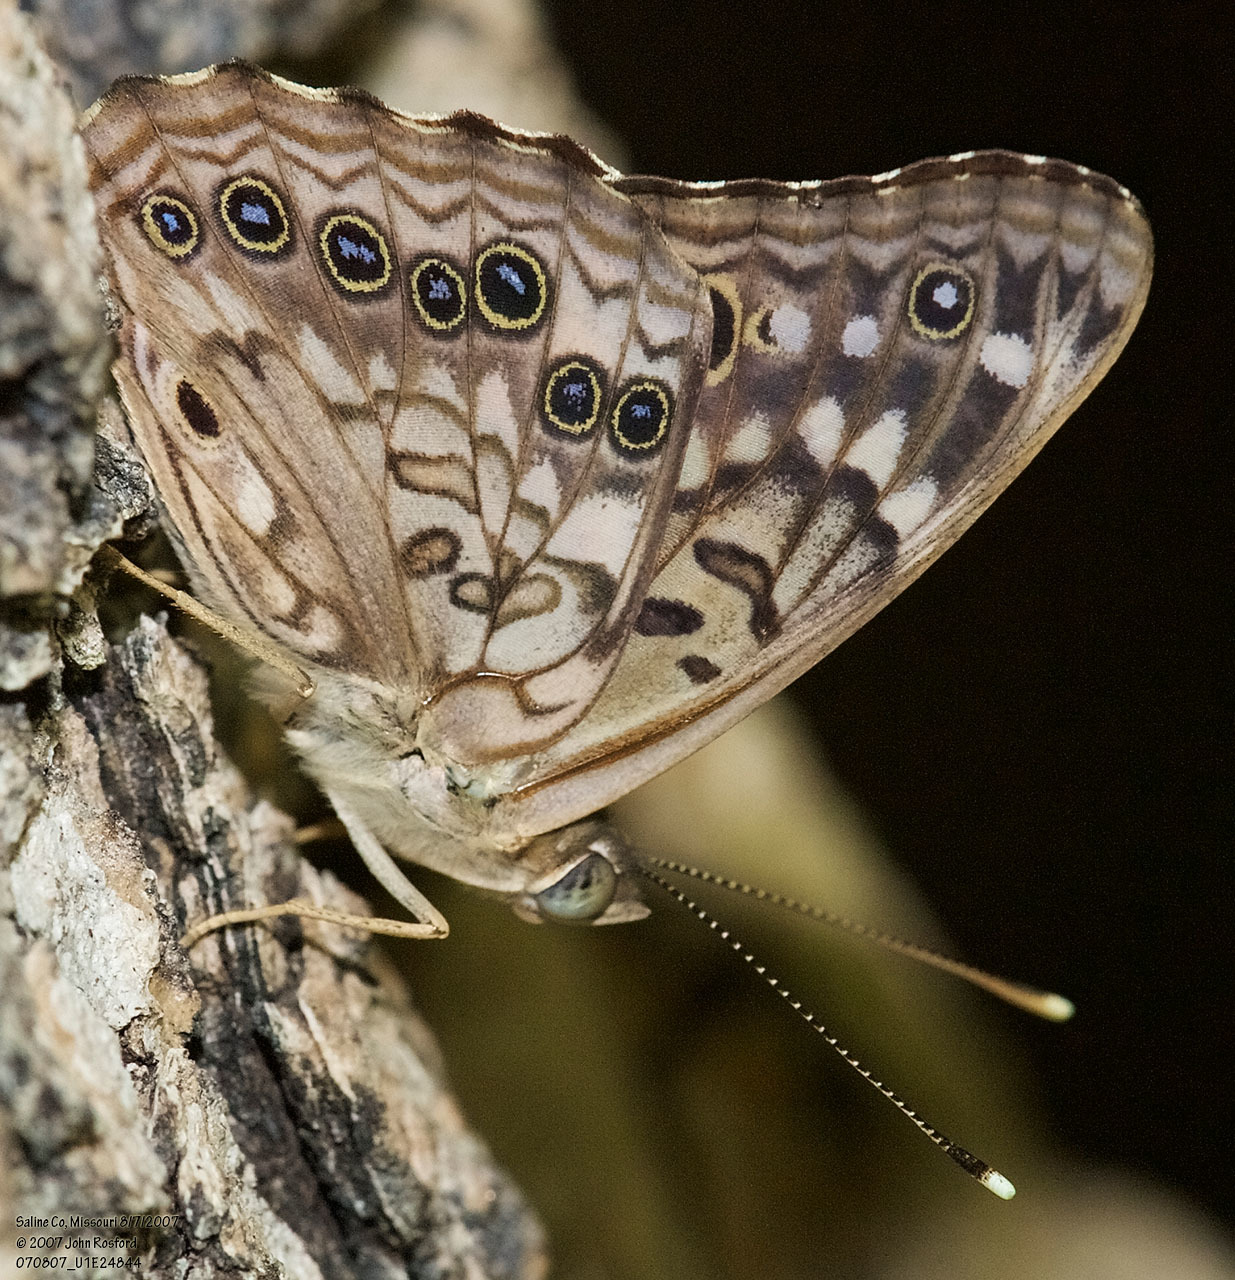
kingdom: Animalia
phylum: Arthropoda
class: Insecta
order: Lepidoptera
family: Nymphalidae
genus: Asterocampa
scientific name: Asterocampa celtis
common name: Hackberry emperor
